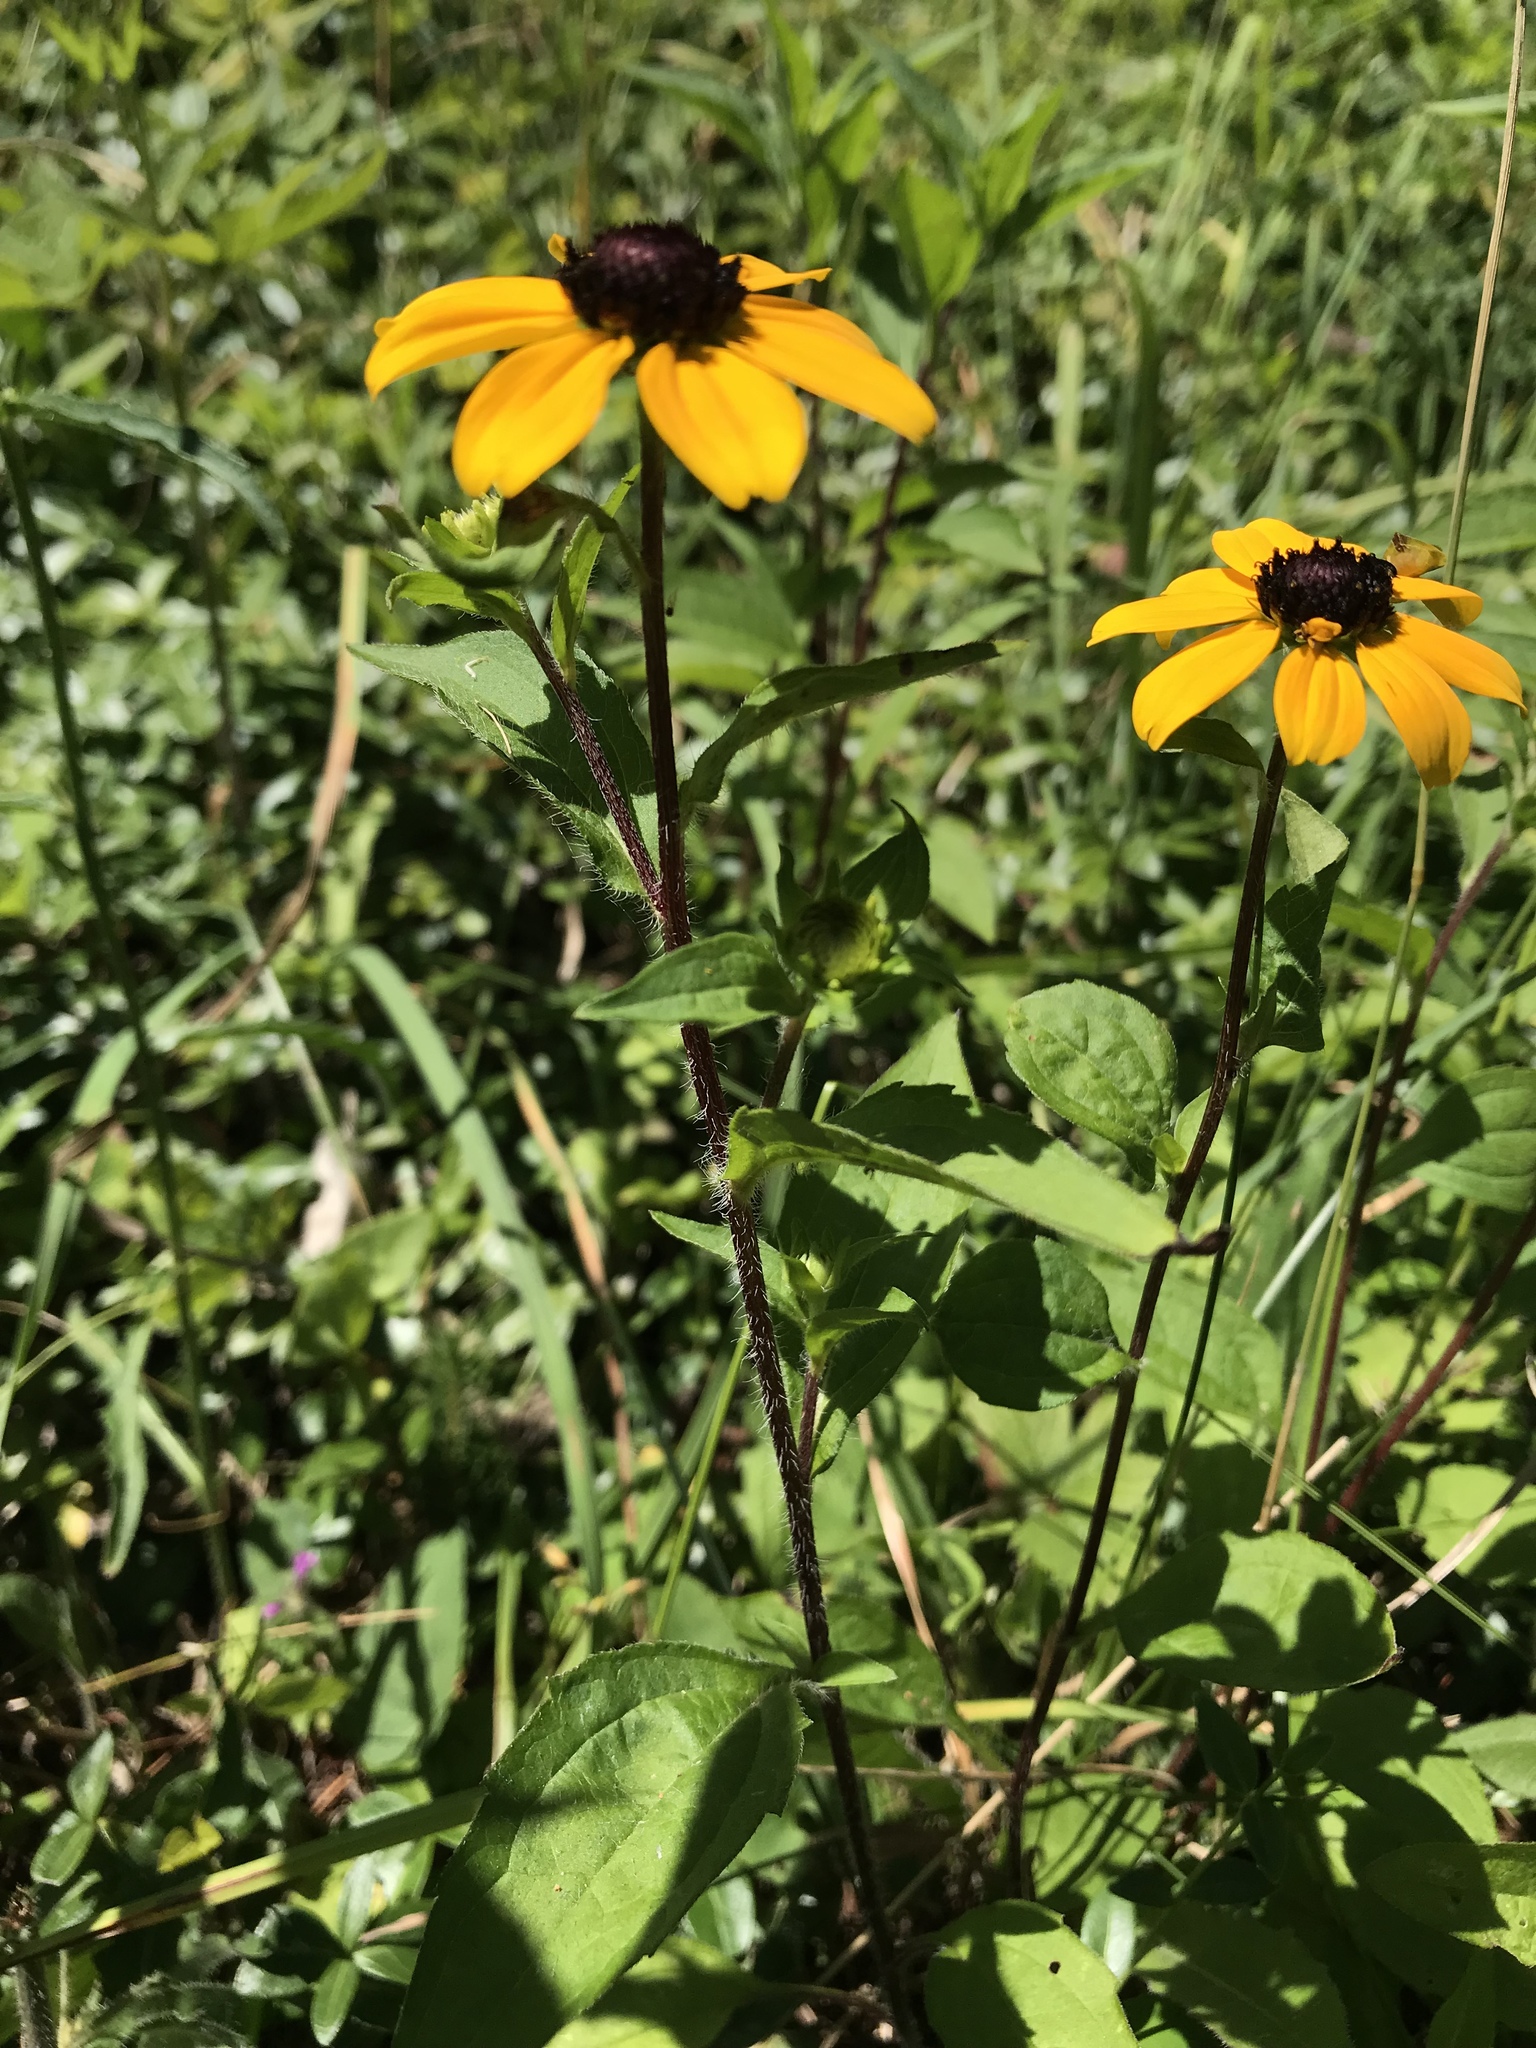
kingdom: Plantae
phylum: Tracheophyta
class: Magnoliopsida
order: Asterales
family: Asteraceae
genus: Rudbeckia
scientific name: Rudbeckia hirta
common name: Black-eyed-susan
